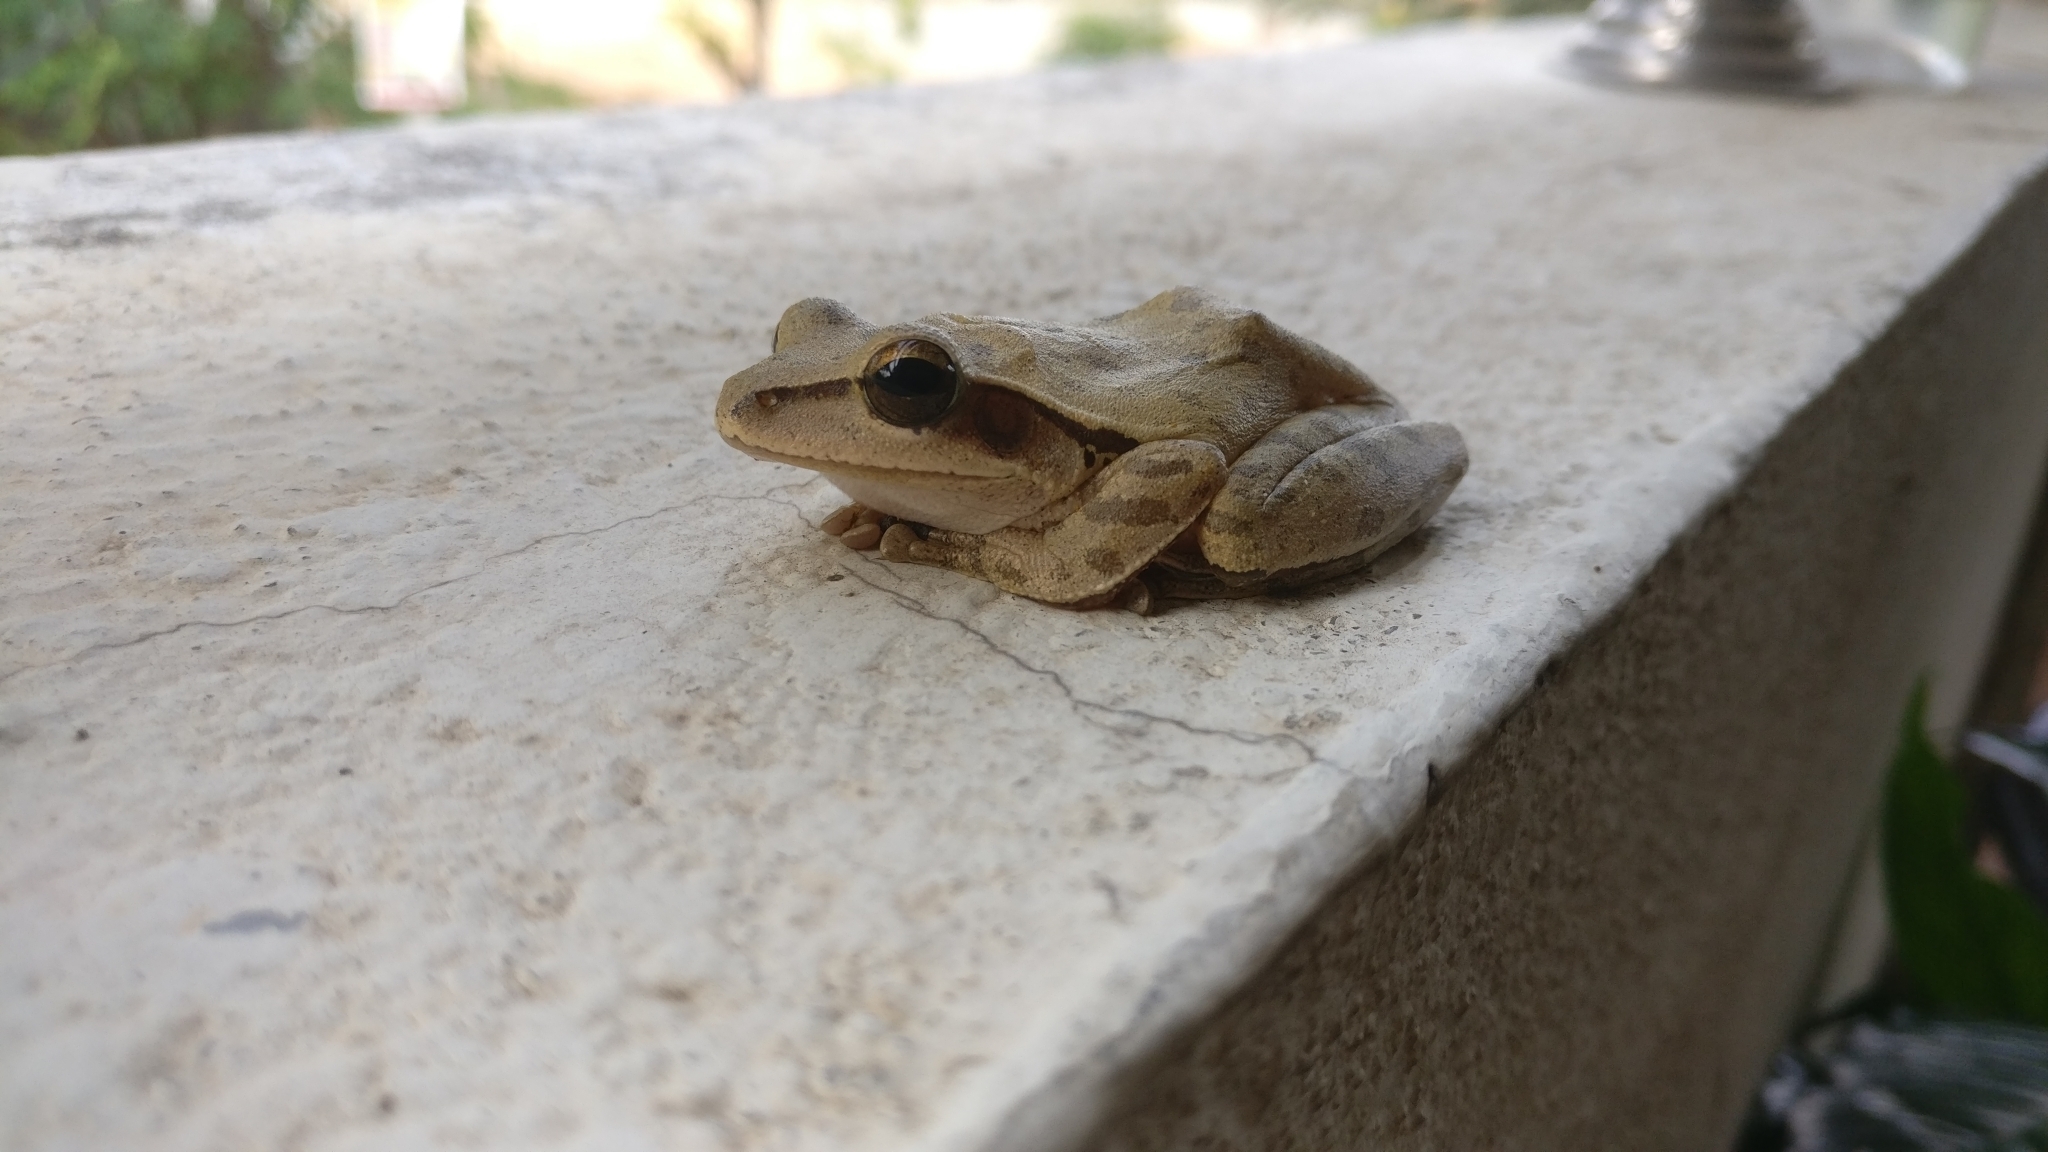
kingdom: Animalia
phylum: Chordata
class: Amphibia
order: Anura
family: Rhacophoridae
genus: Polypedates
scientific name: Polypedates maculatus
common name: Himalayan tree frog
